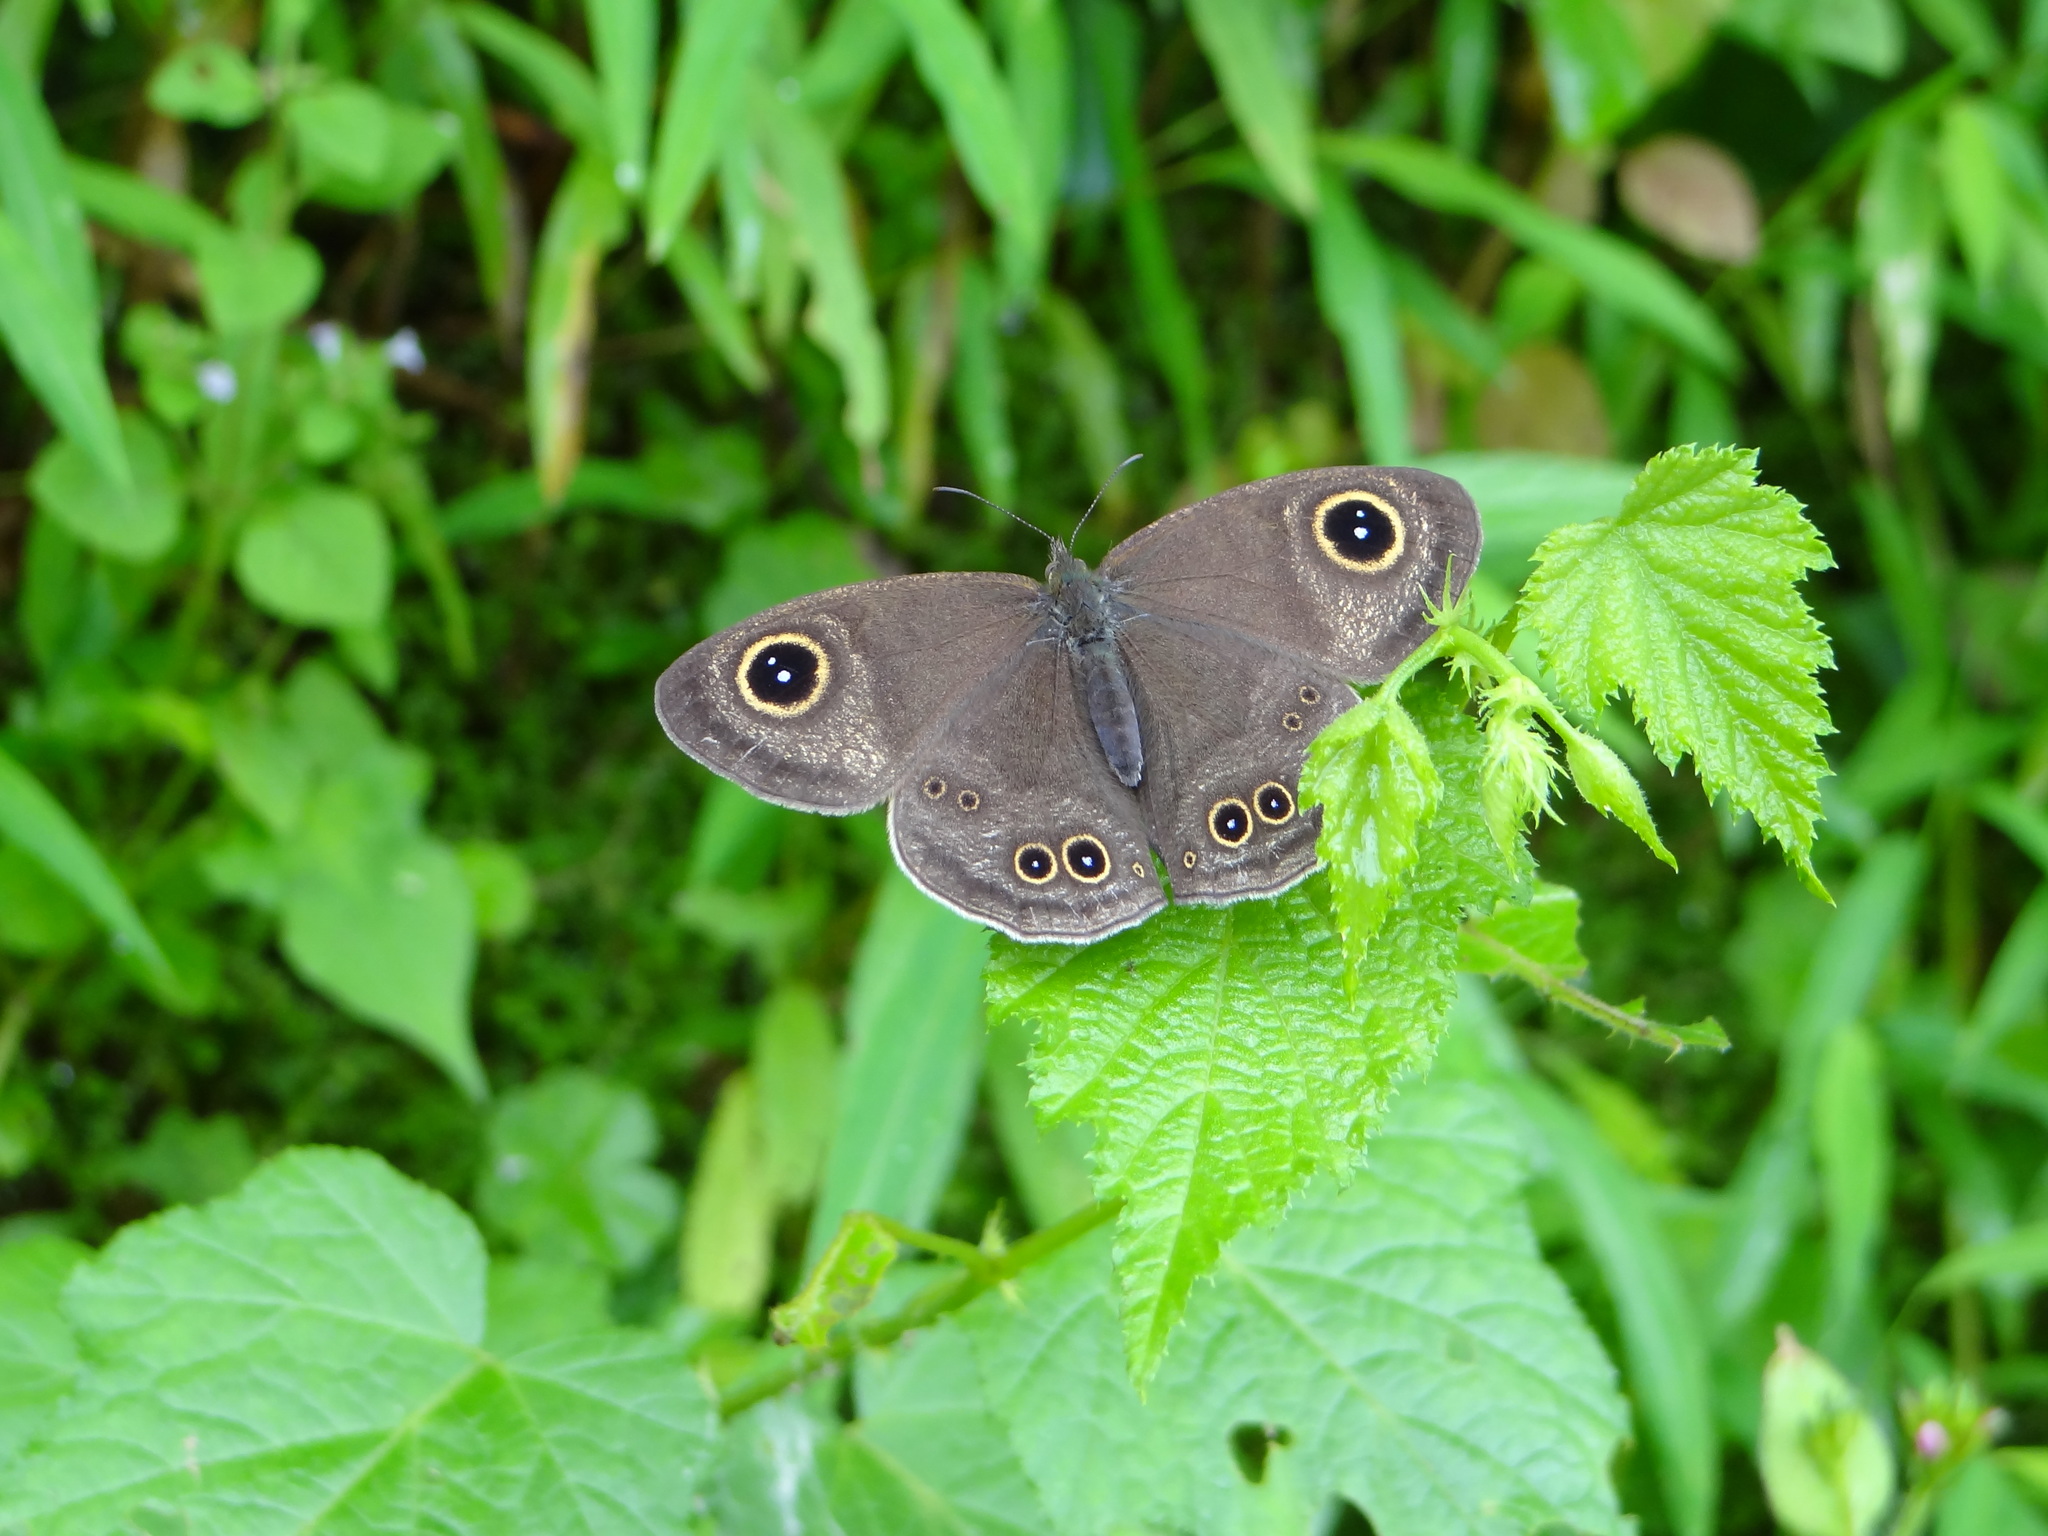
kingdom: Animalia
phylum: Arthropoda
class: Insecta
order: Lepidoptera
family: Nymphalidae
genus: Ypthima
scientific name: Ypthima formosana
